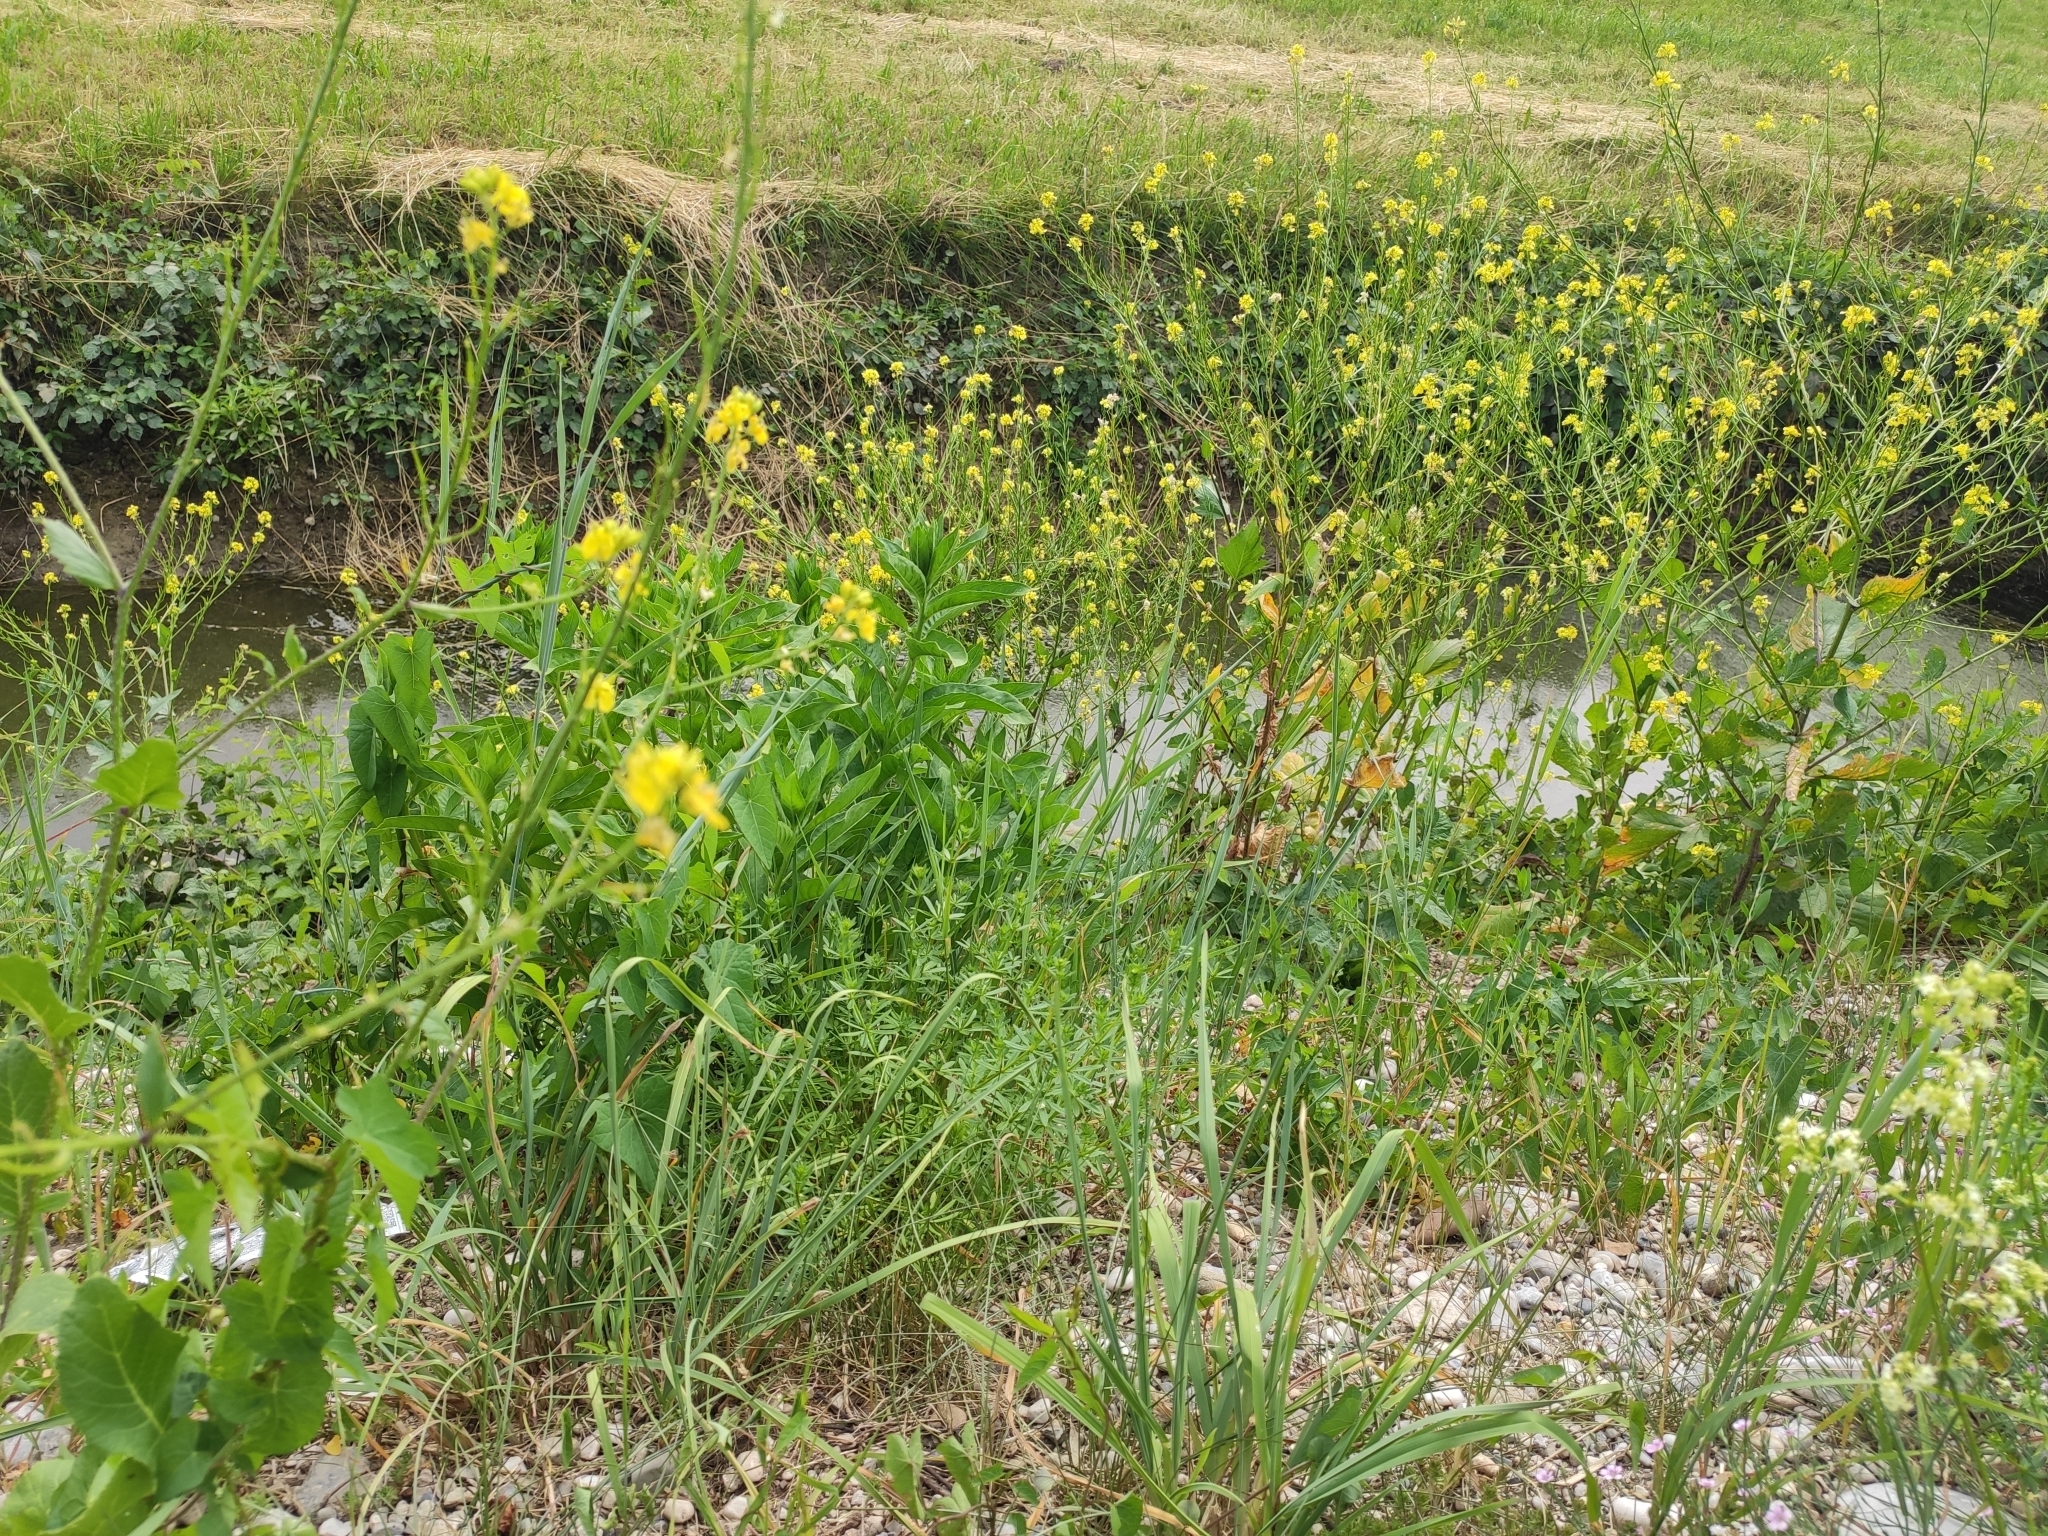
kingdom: Plantae
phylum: Tracheophyta
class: Magnoliopsida
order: Brassicales
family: Brassicaceae
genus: Sinapis
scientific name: Sinapis arvensis
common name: Charlock
